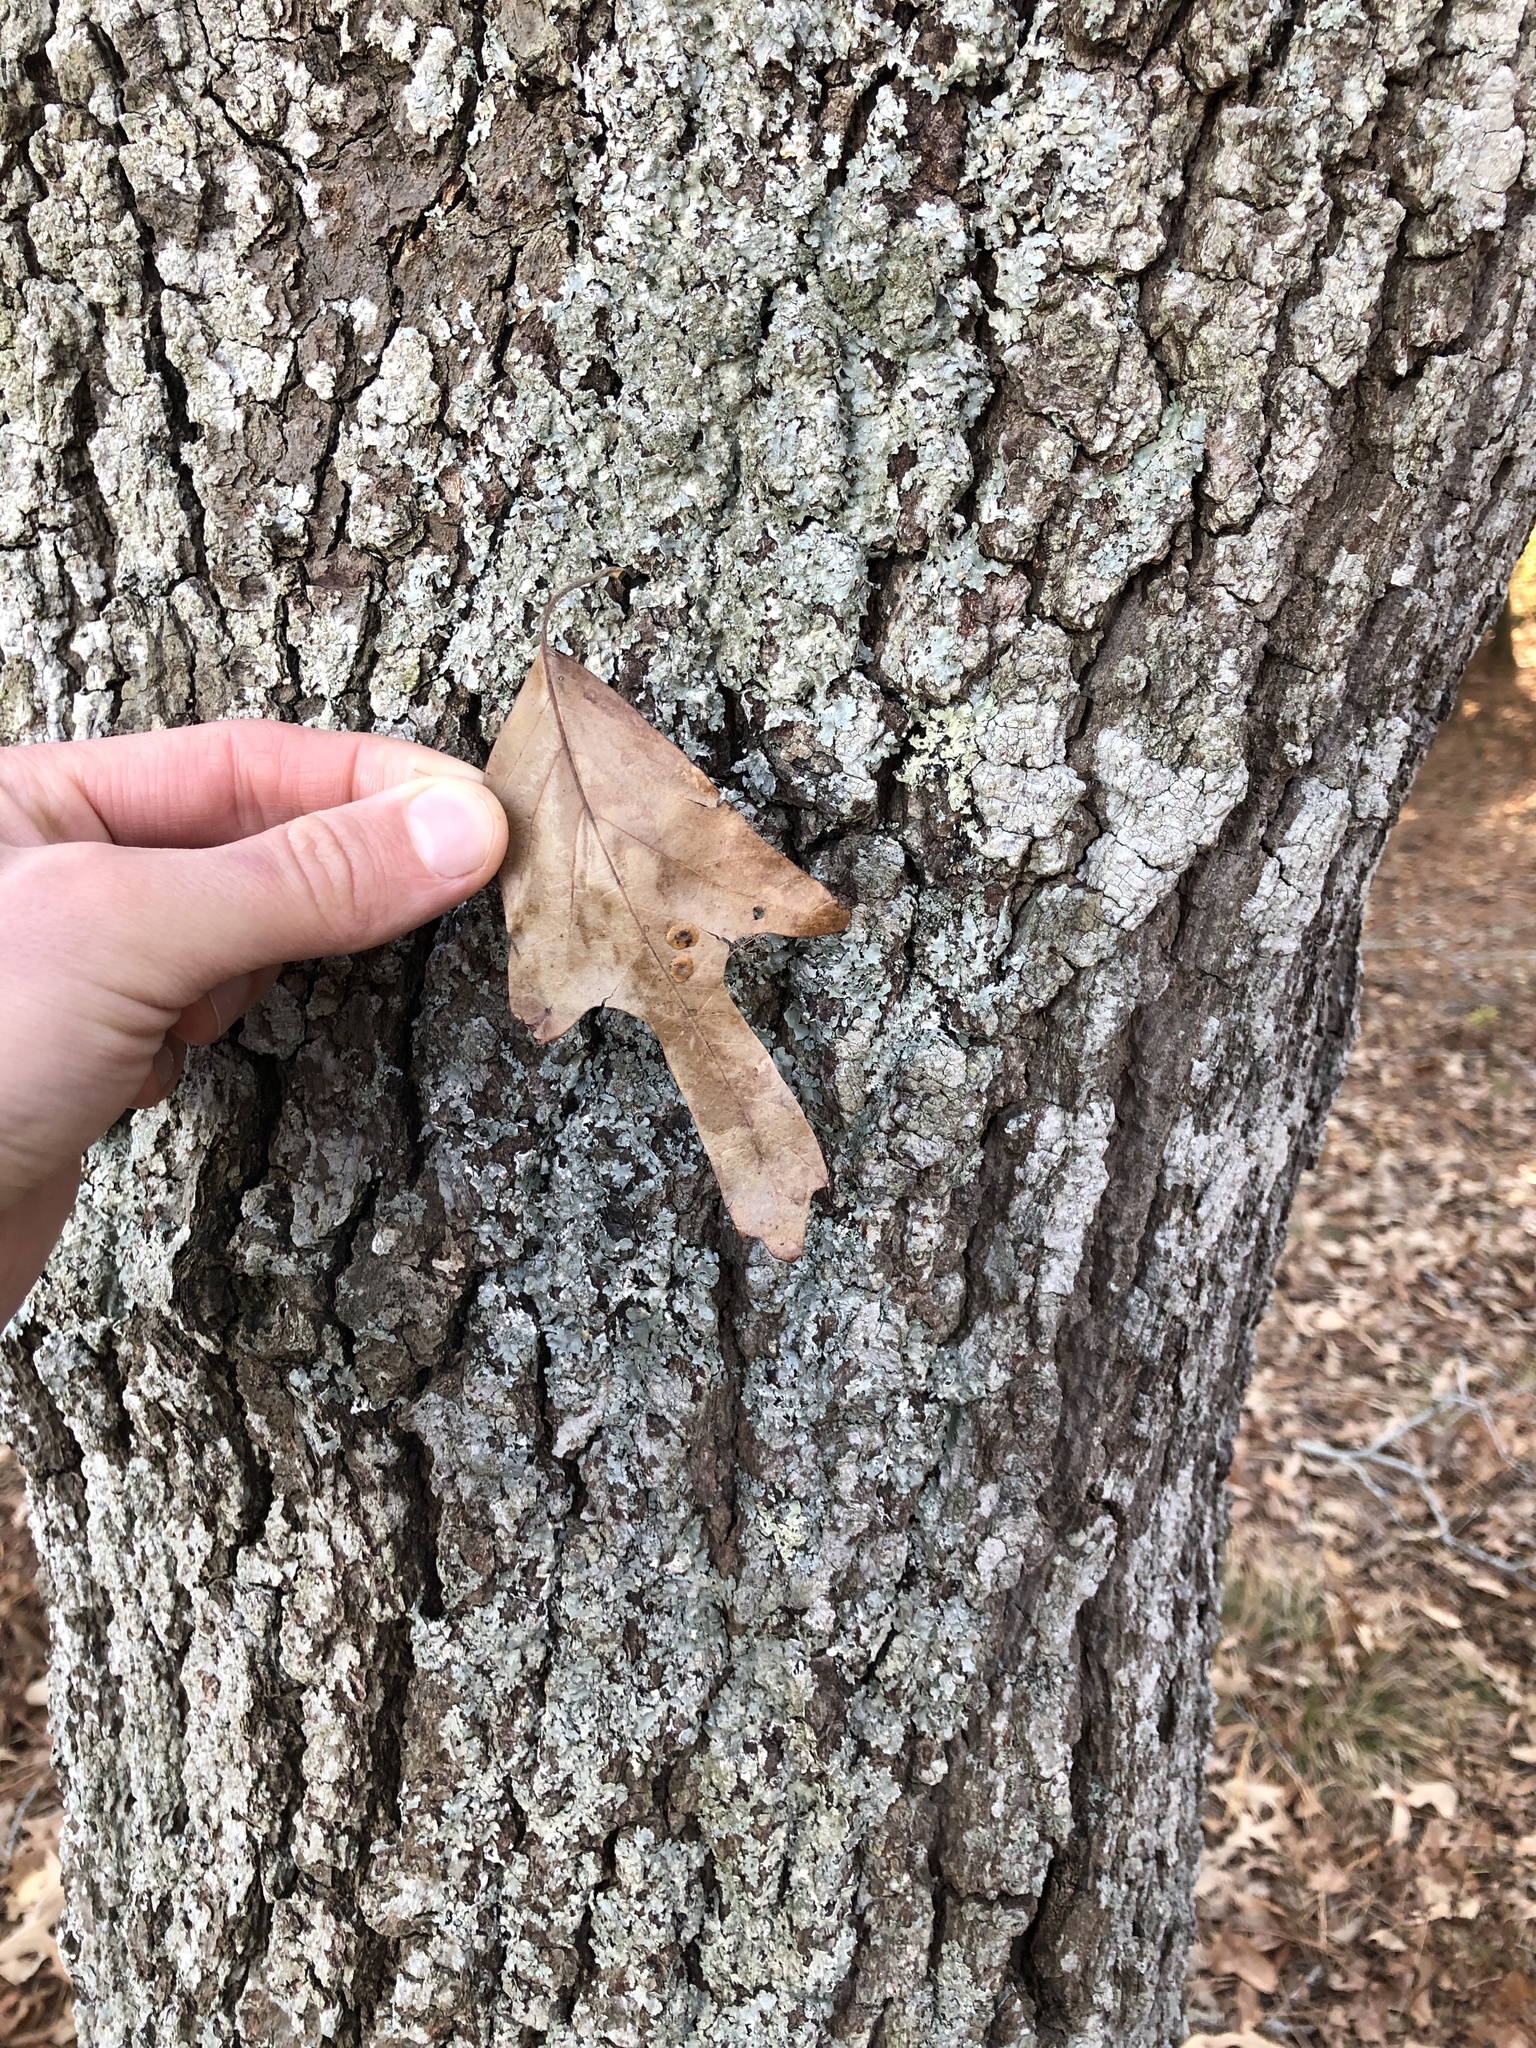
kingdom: Plantae
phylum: Tracheophyta
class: Magnoliopsida
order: Fagales
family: Fagaceae
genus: Quercus
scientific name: Quercus falcata
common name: Southern red oak
